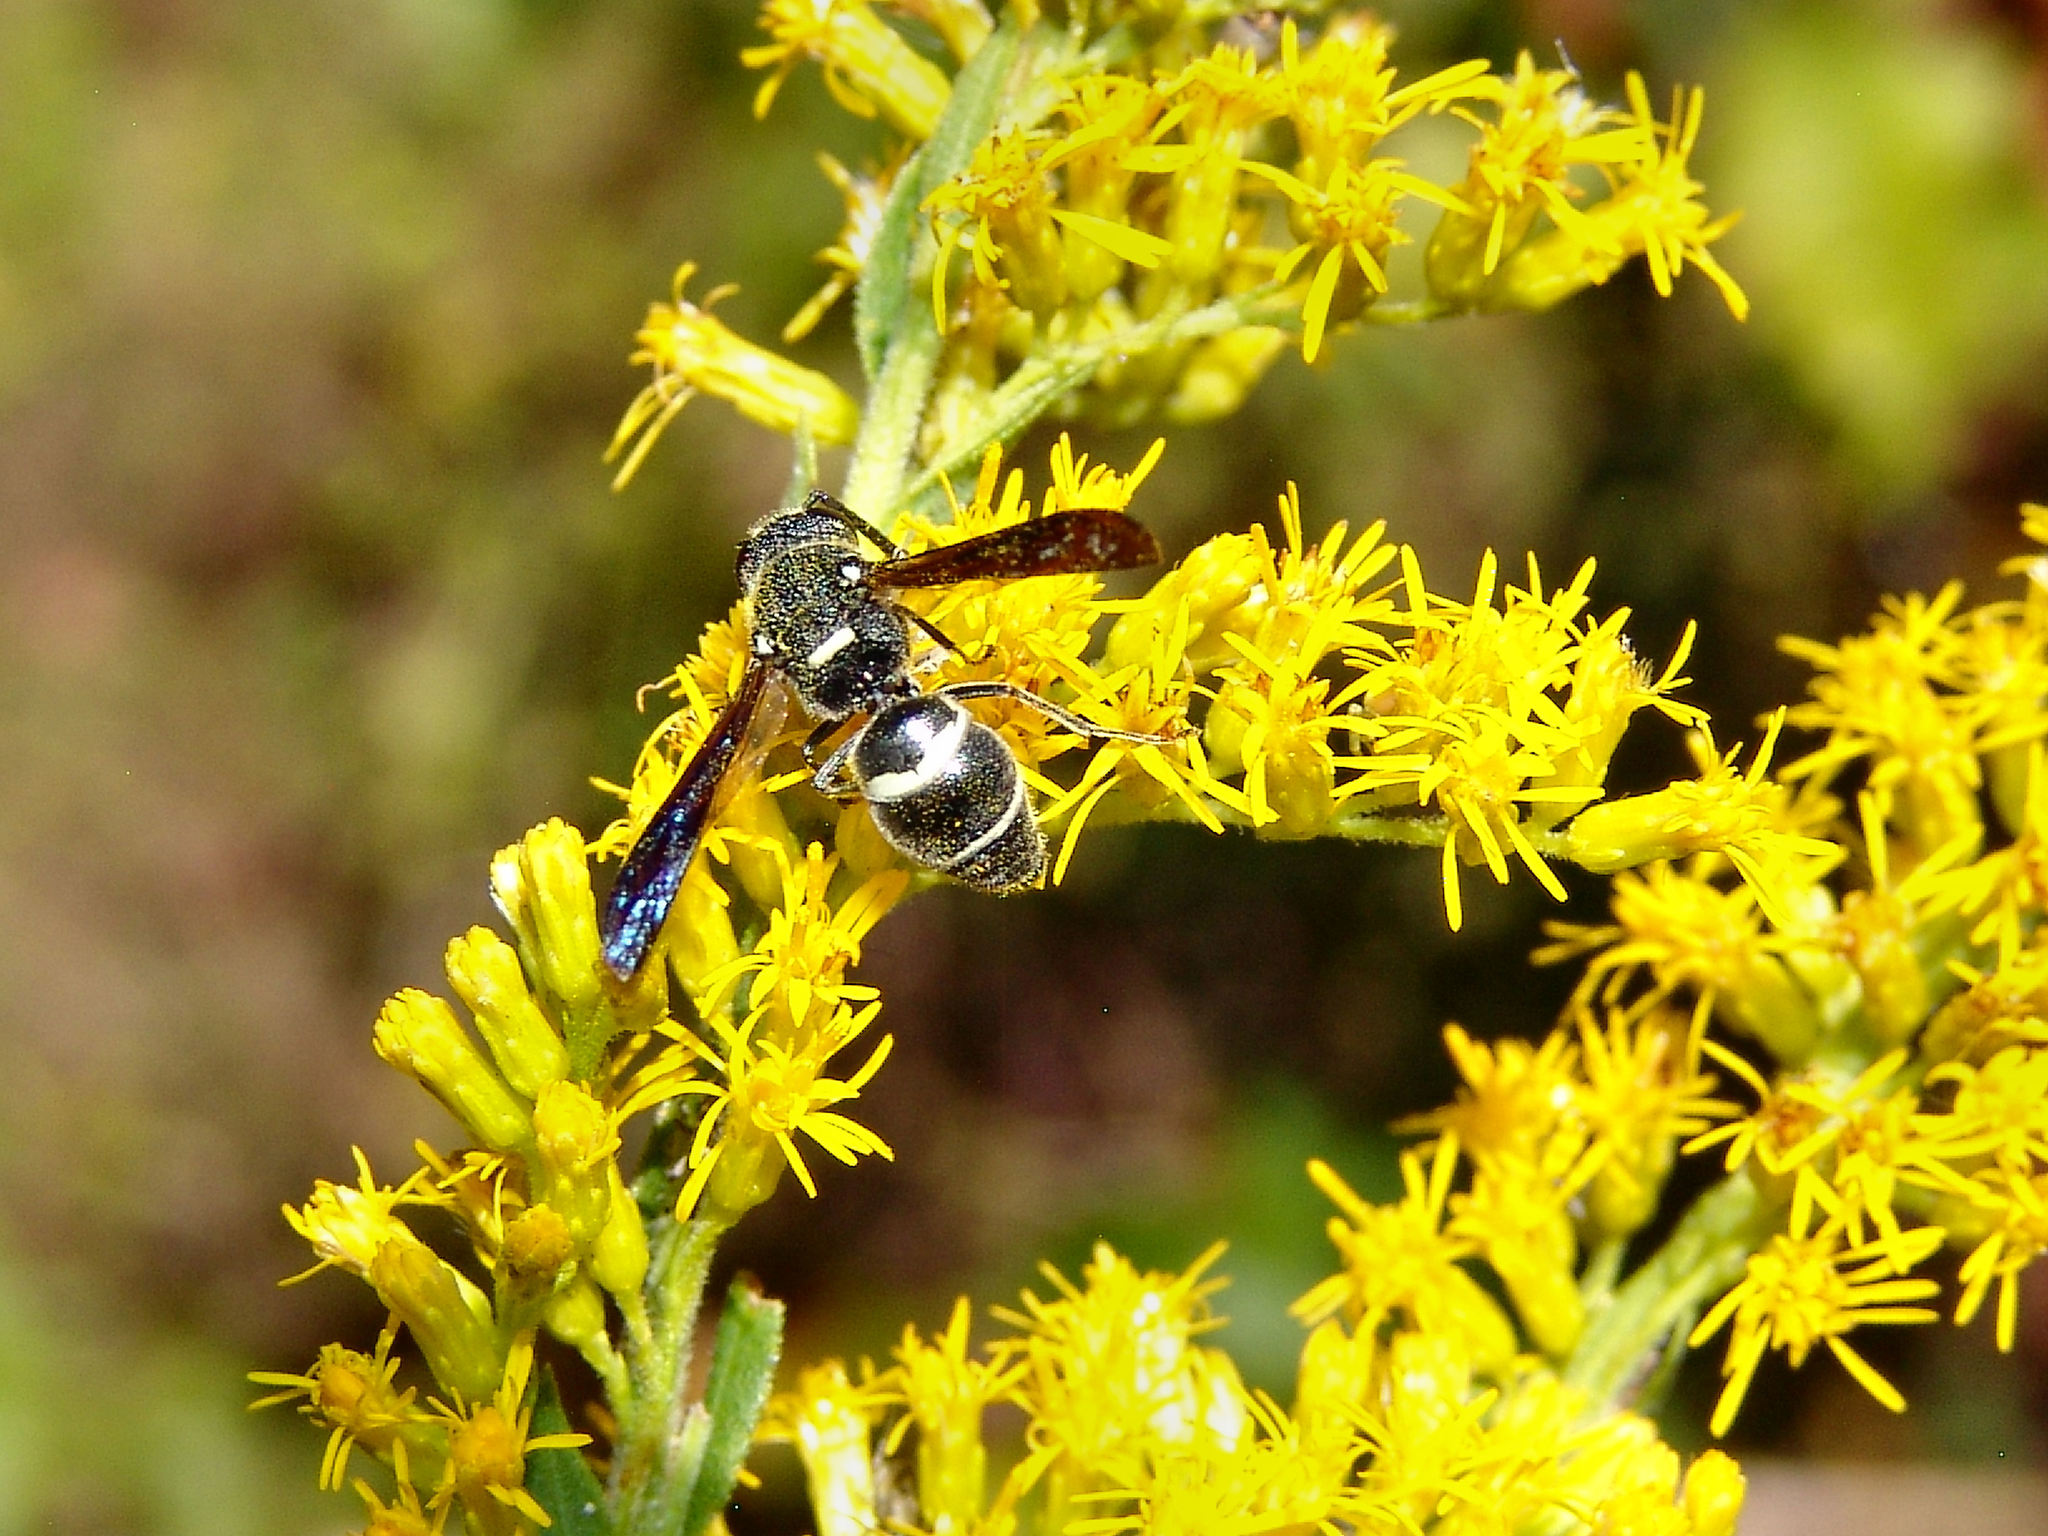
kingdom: Animalia
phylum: Arthropoda
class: Insecta
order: Hymenoptera
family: Eumenidae
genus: Euodynerus
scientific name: Euodynerus megaera
